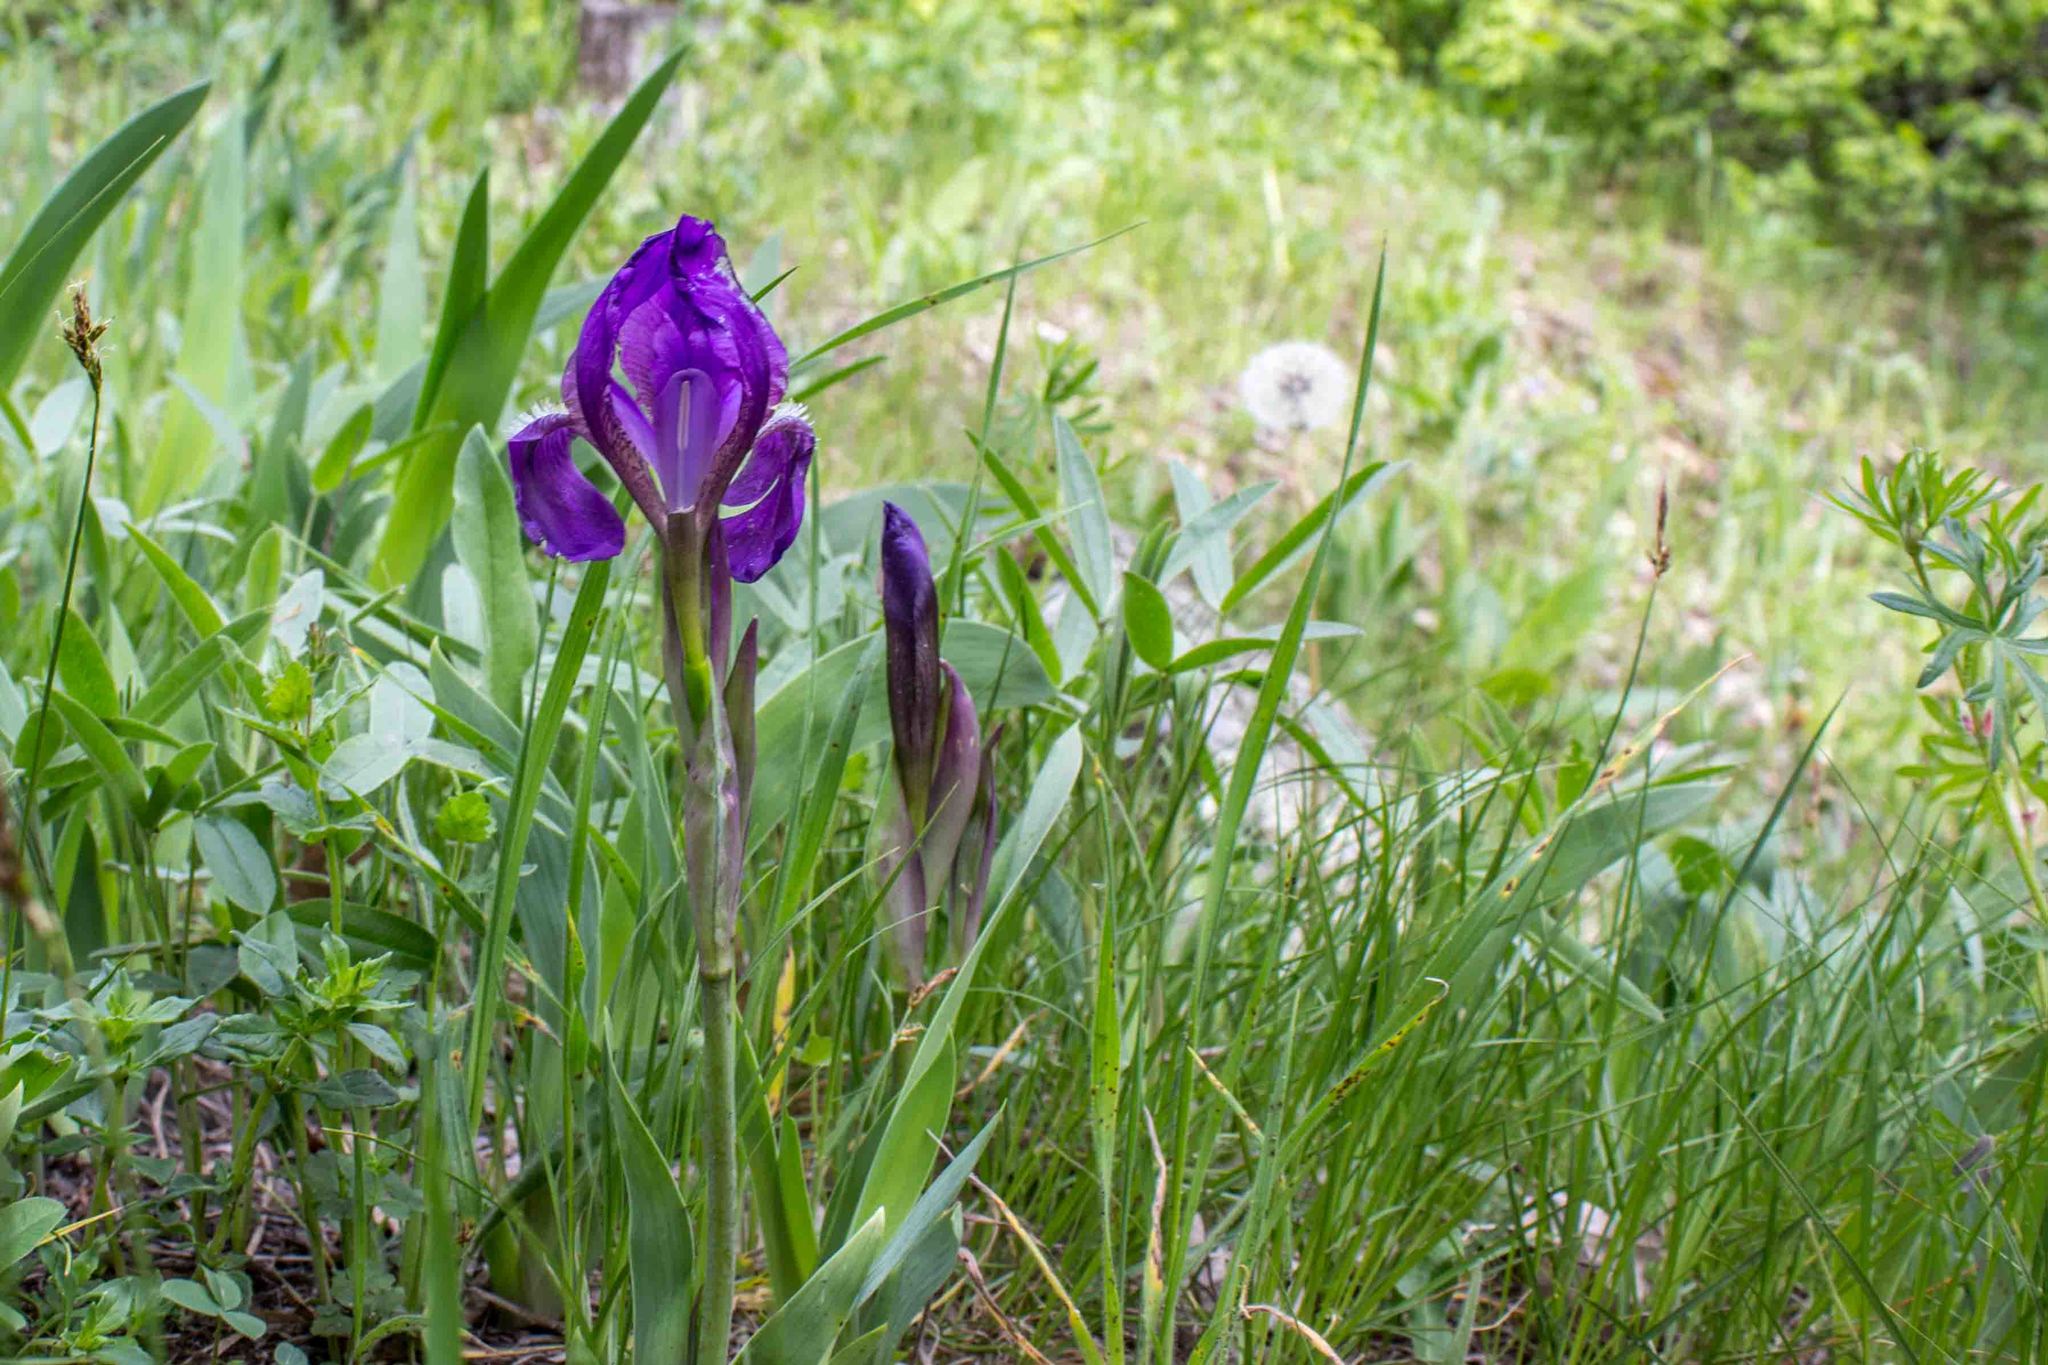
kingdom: Plantae
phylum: Tracheophyta
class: Liliopsida
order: Asparagales
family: Iridaceae
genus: Iris
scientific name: Iris aphylla
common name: Stool iris
